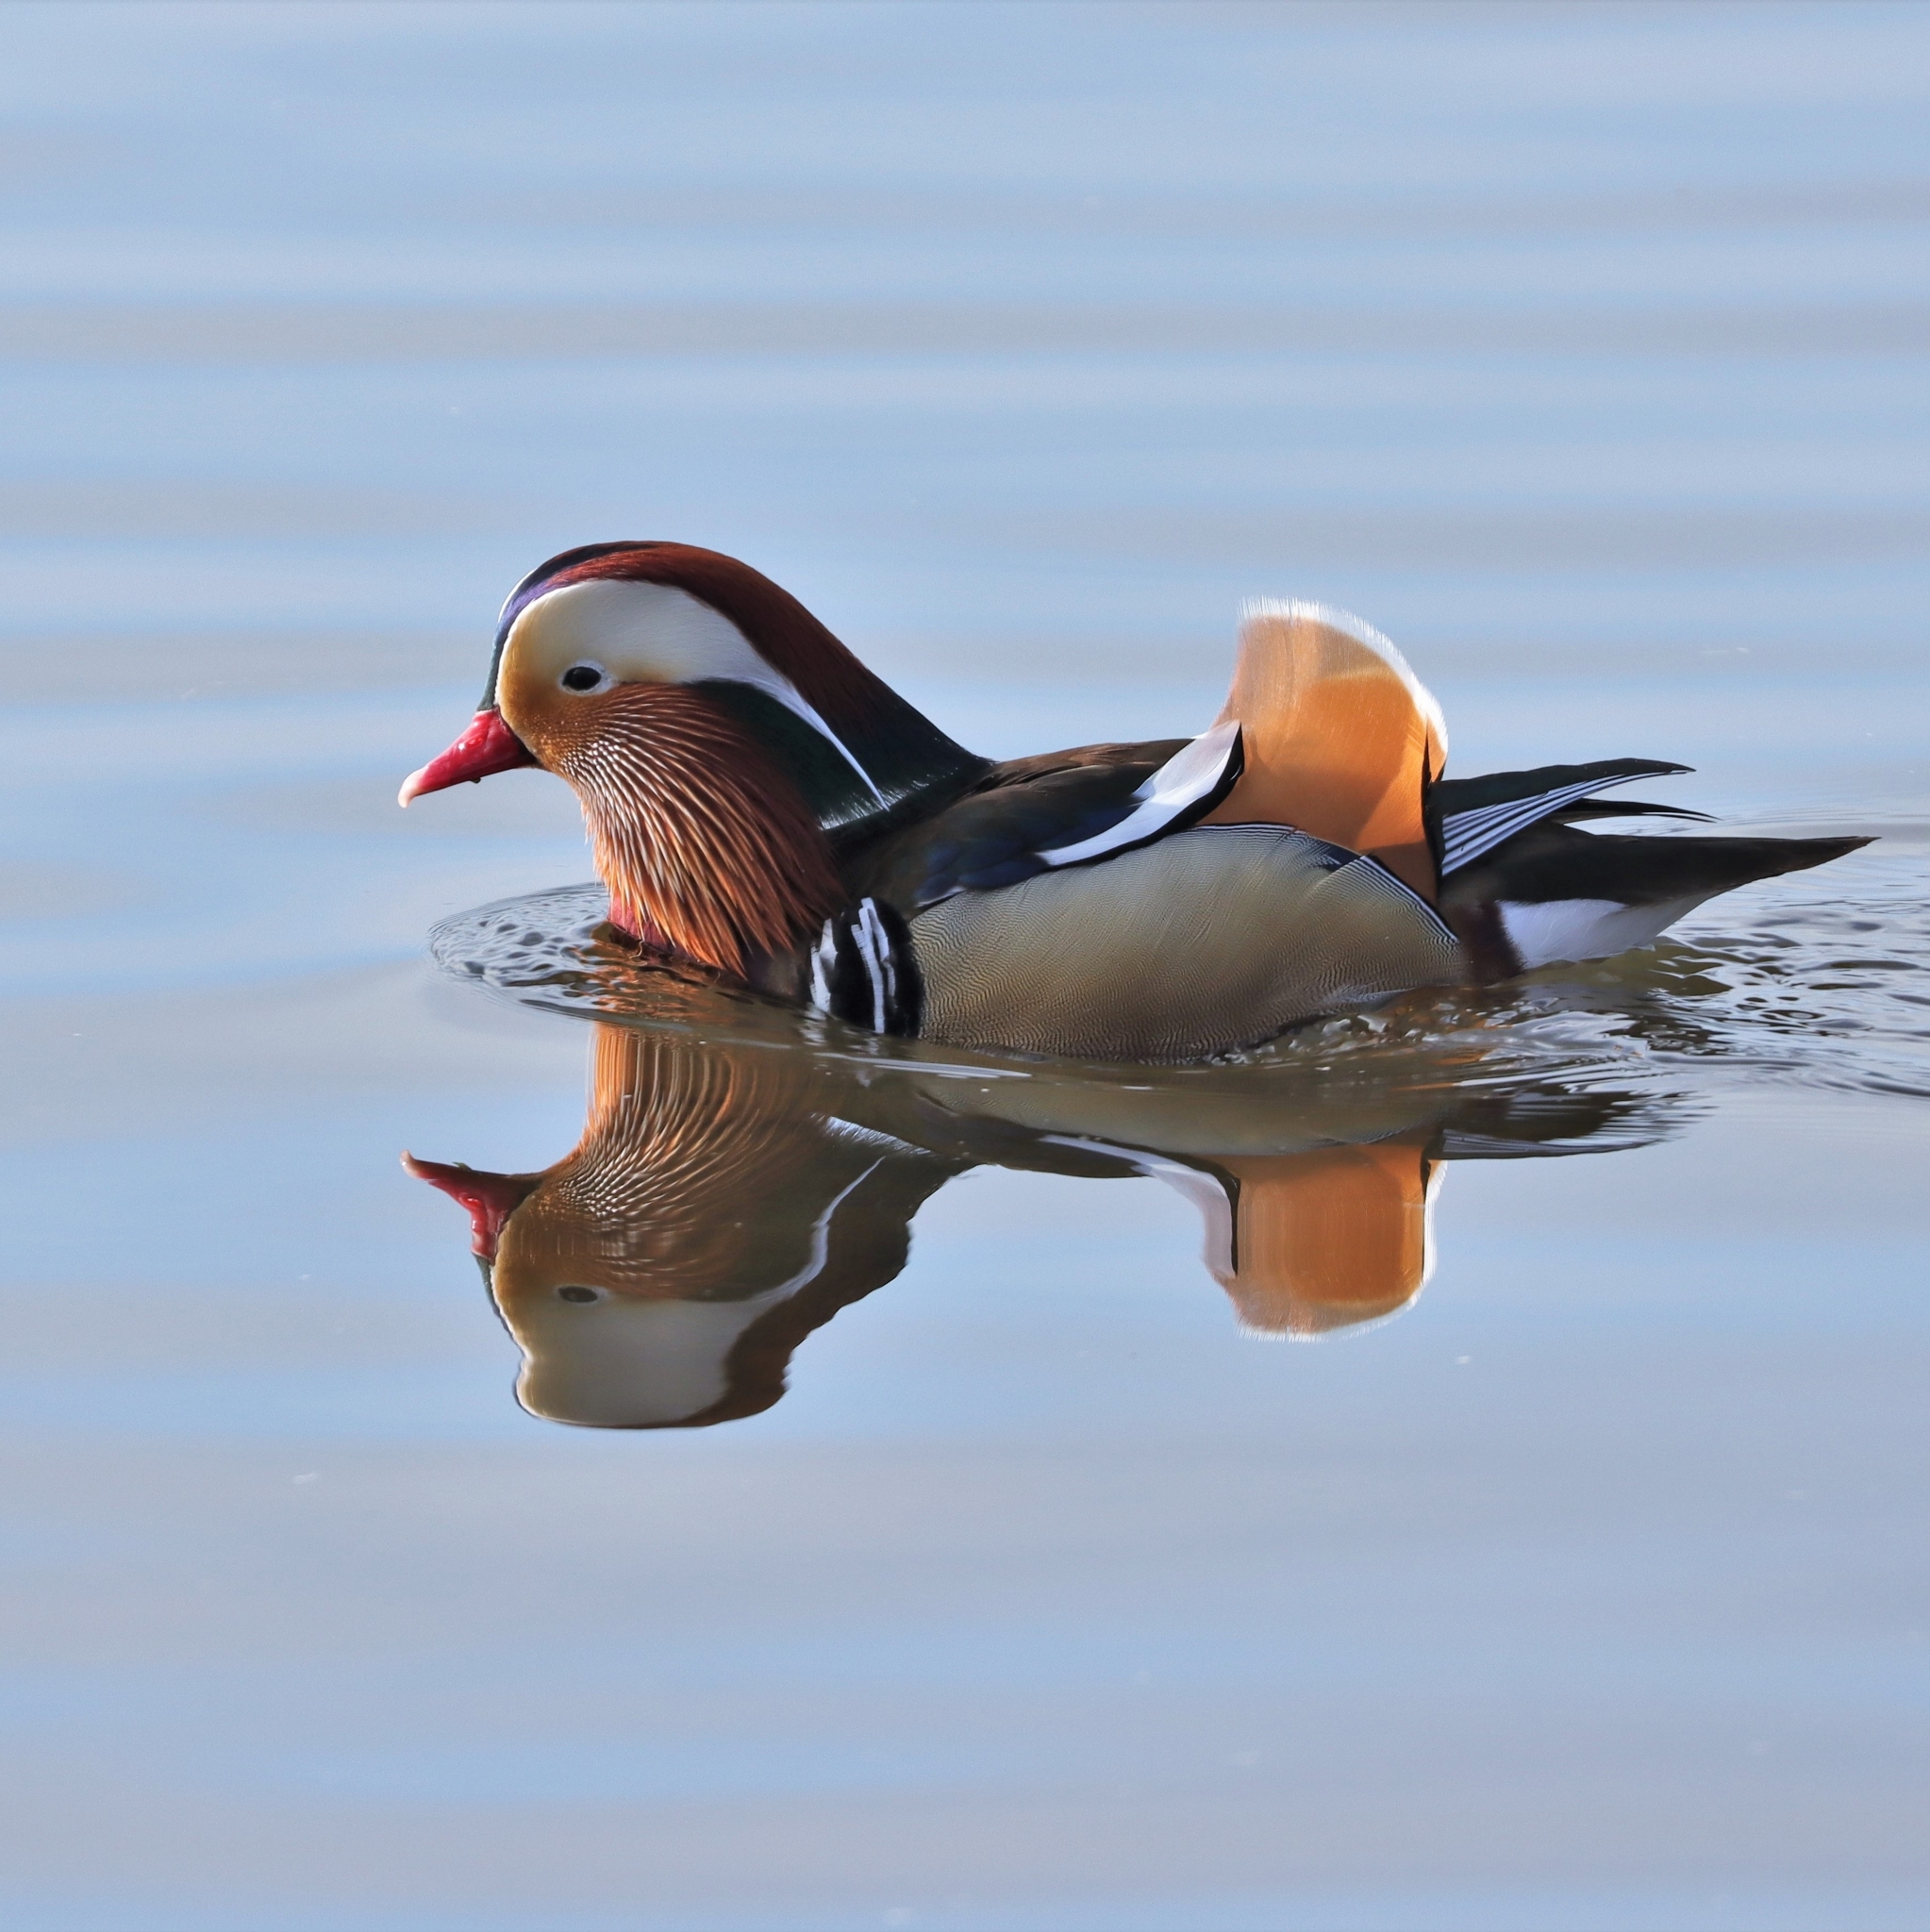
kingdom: Animalia
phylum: Chordata
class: Aves
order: Anseriformes
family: Anatidae
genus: Aix
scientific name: Aix galericulata
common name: Mandarin duck
